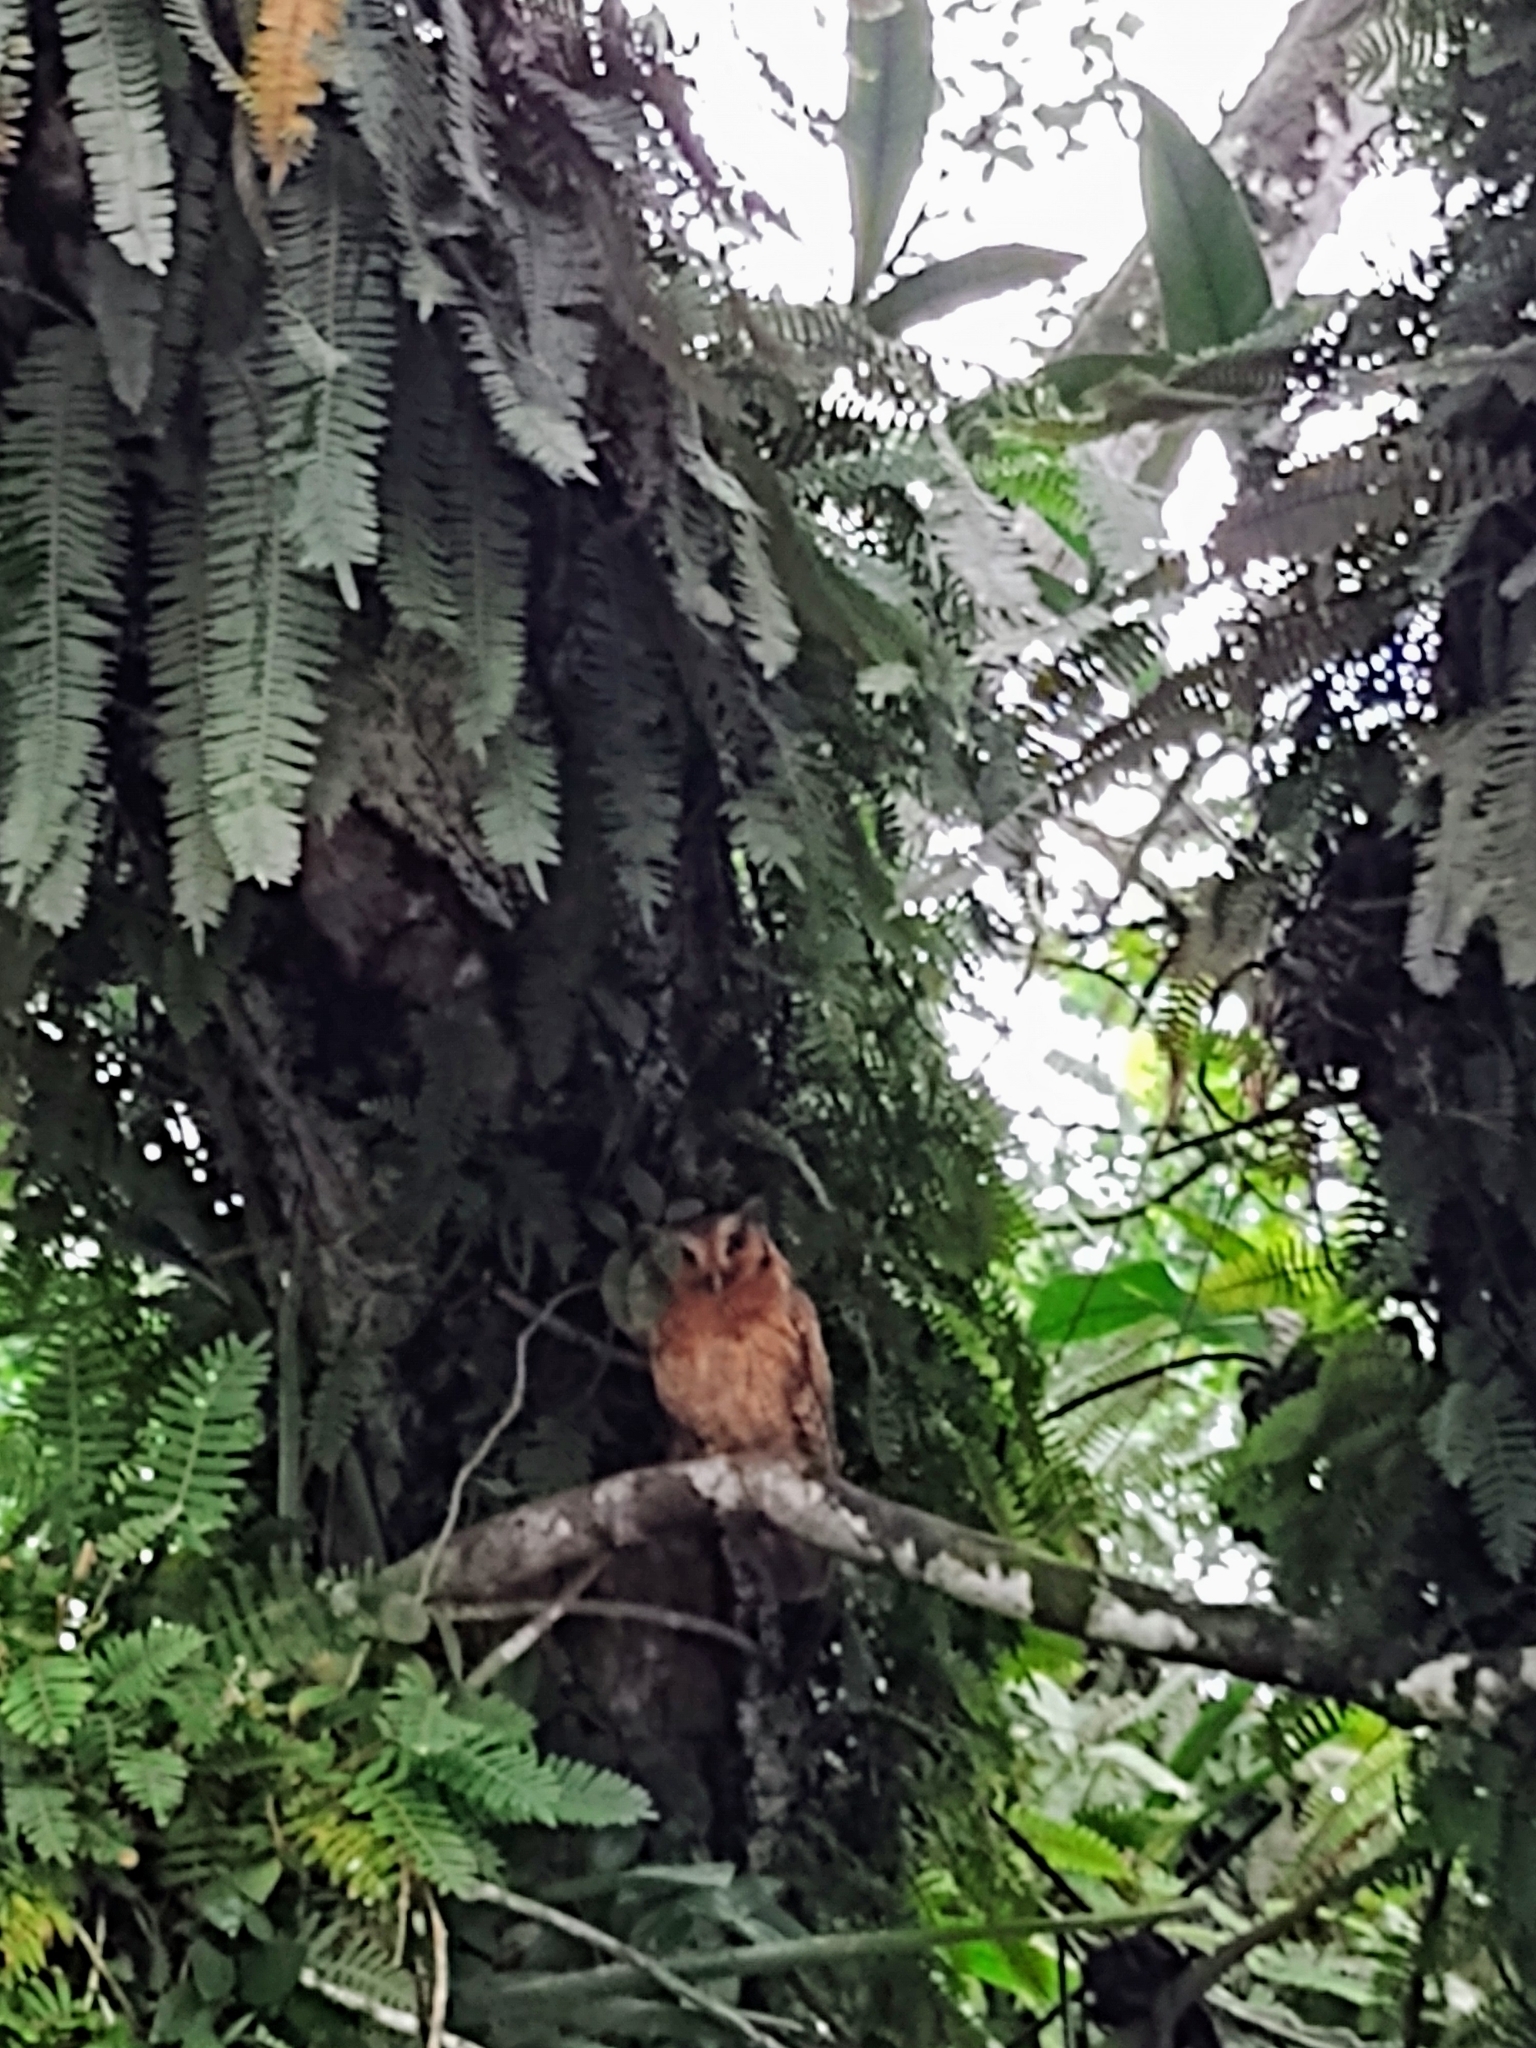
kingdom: Animalia
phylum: Chordata
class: Aves
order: Strigiformes
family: Strigidae
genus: Megascops
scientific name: Megascops choliba
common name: Tropical screech-owl
